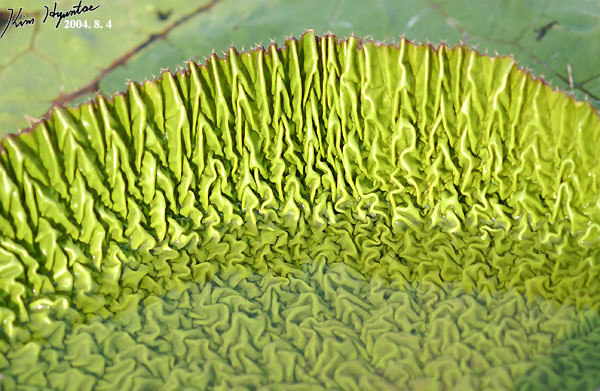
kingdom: Plantae
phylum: Tracheophyta
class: Magnoliopsida
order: Nymphaeales
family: Nymphaeaceae
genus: Euryale
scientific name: Euryale ferox
